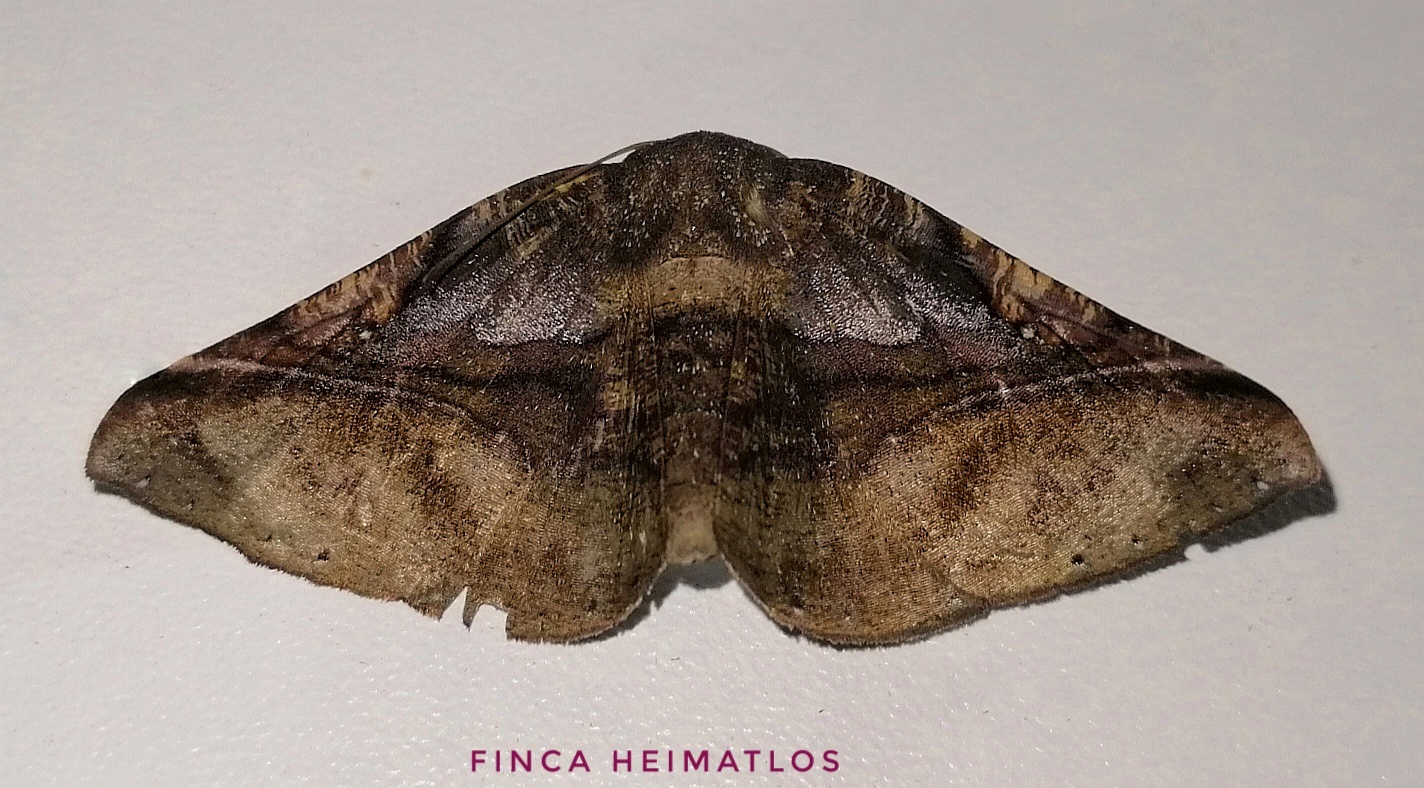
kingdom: Animalia
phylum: Arthropoda
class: Insecta
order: Lepidoptera
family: Geometridae
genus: Pero
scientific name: Pero exquisita
